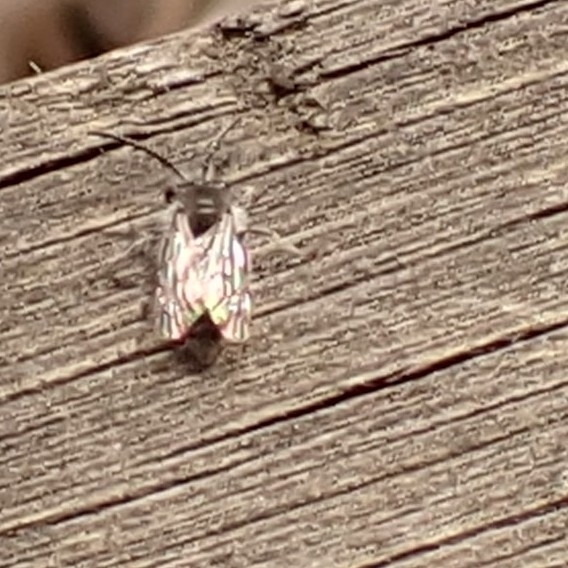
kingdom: Animalia
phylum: Arthropoda
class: Insecta
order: Hymenoptera
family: Andrenidae
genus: Andrena
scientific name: Andrena cineraria
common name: Ashy mining bee
